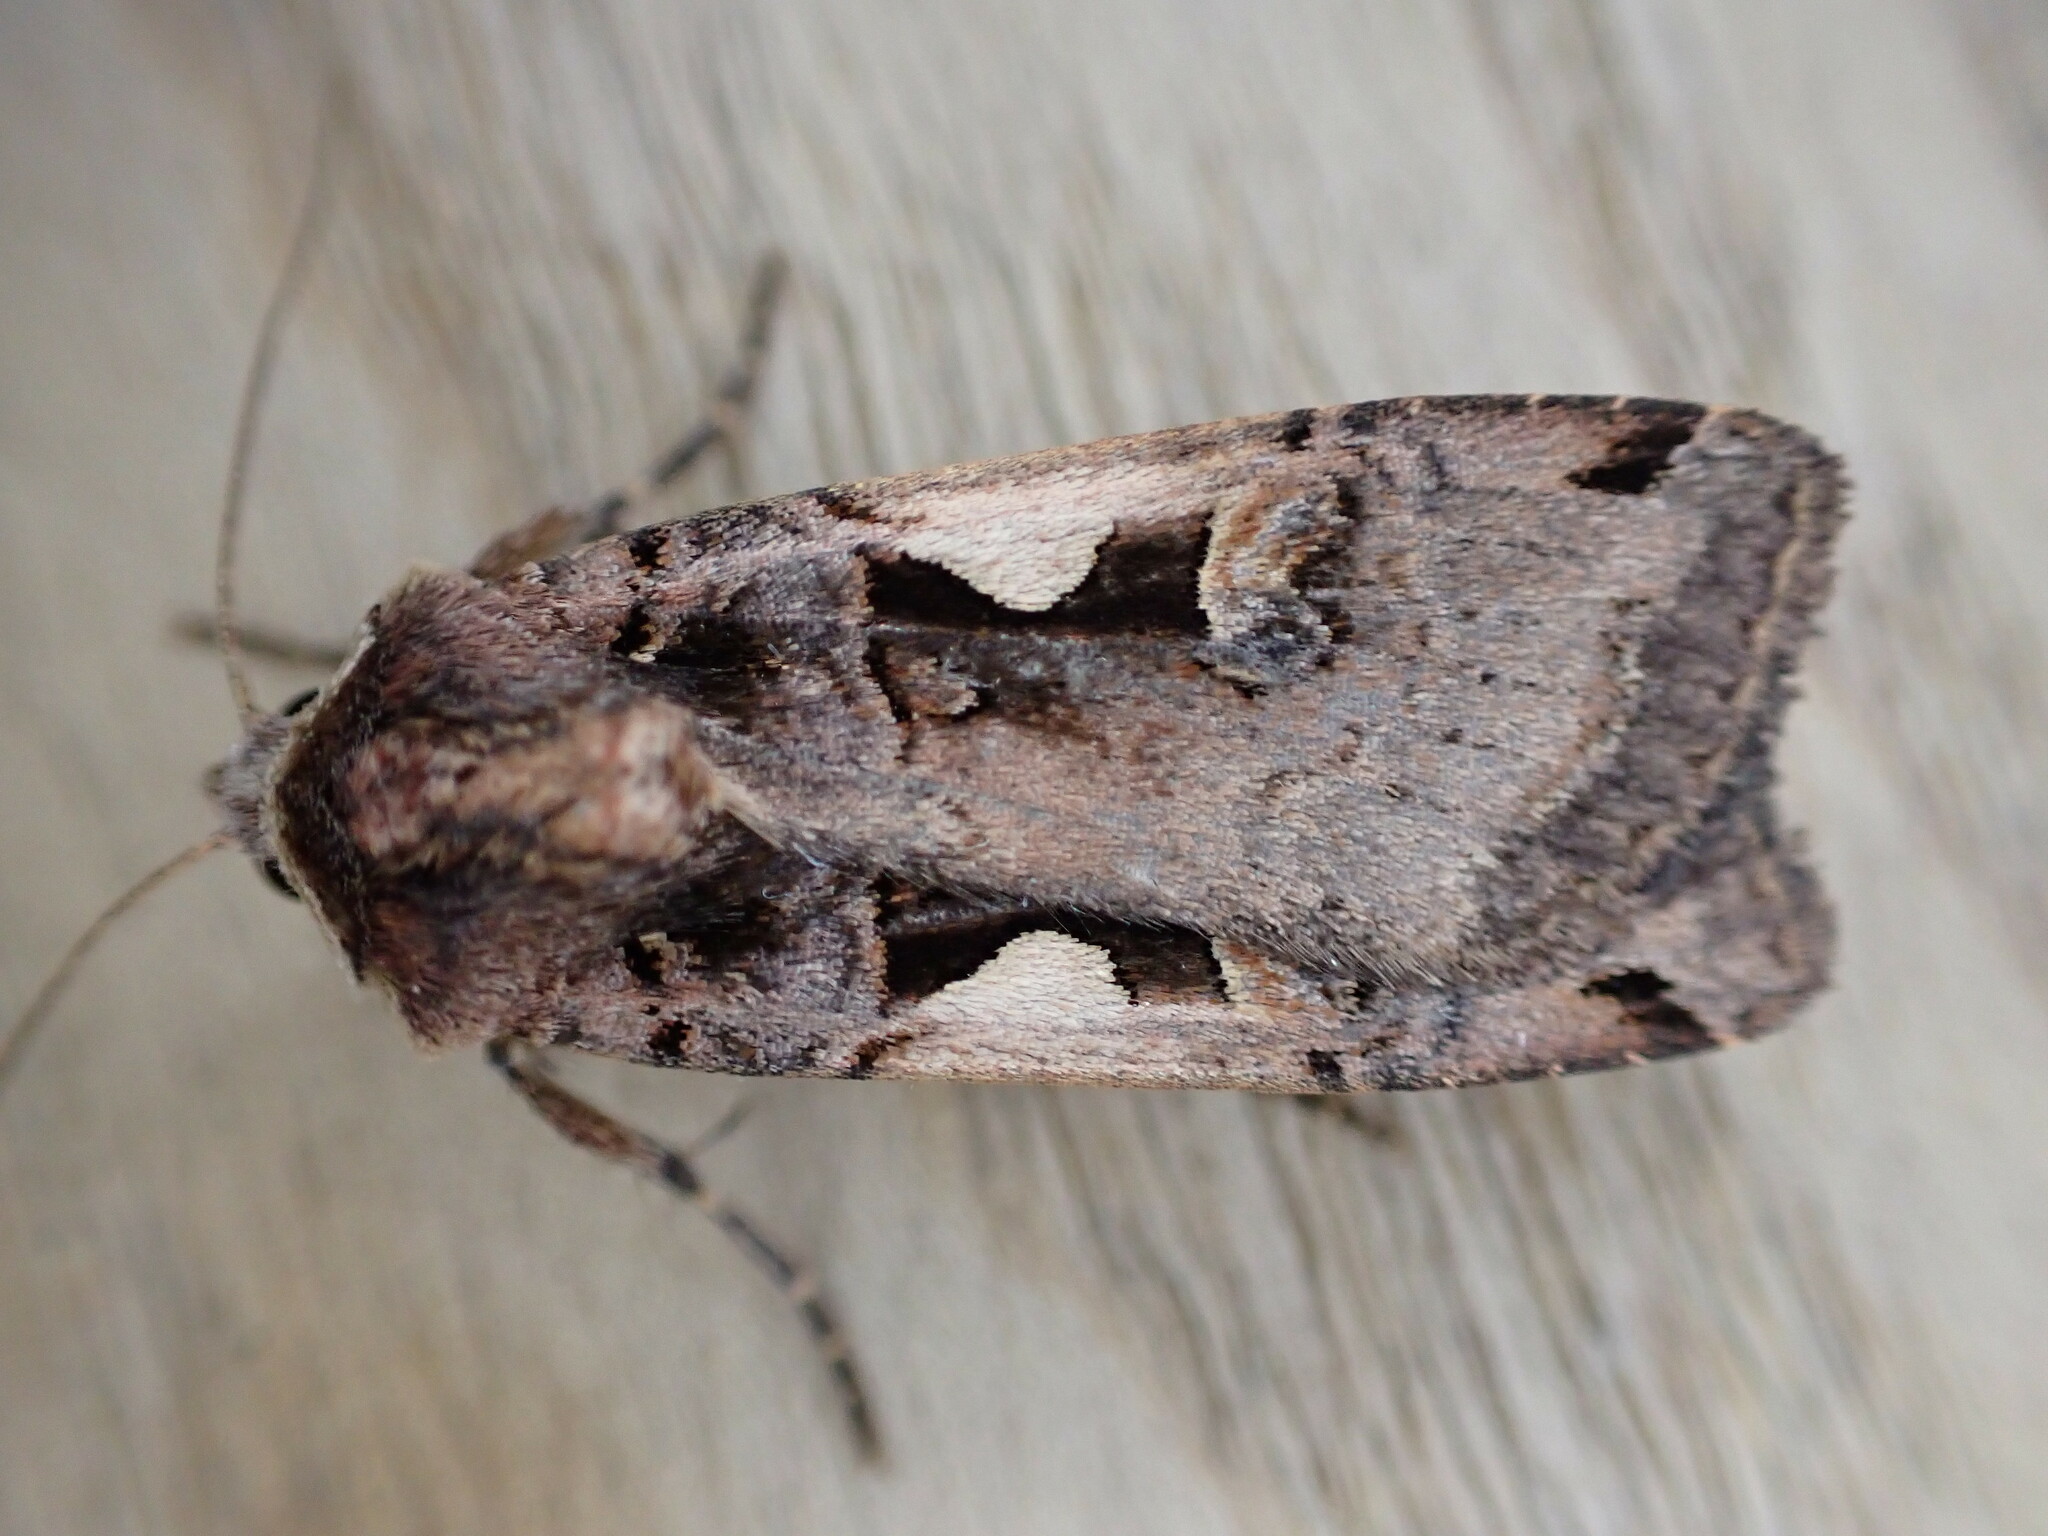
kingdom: Animalia
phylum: Arthropoda
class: Insecta
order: Lepidoptera
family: Noctuidae
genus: Xestia
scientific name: Xestia c-nigrum
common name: Setaceous hebrew character
